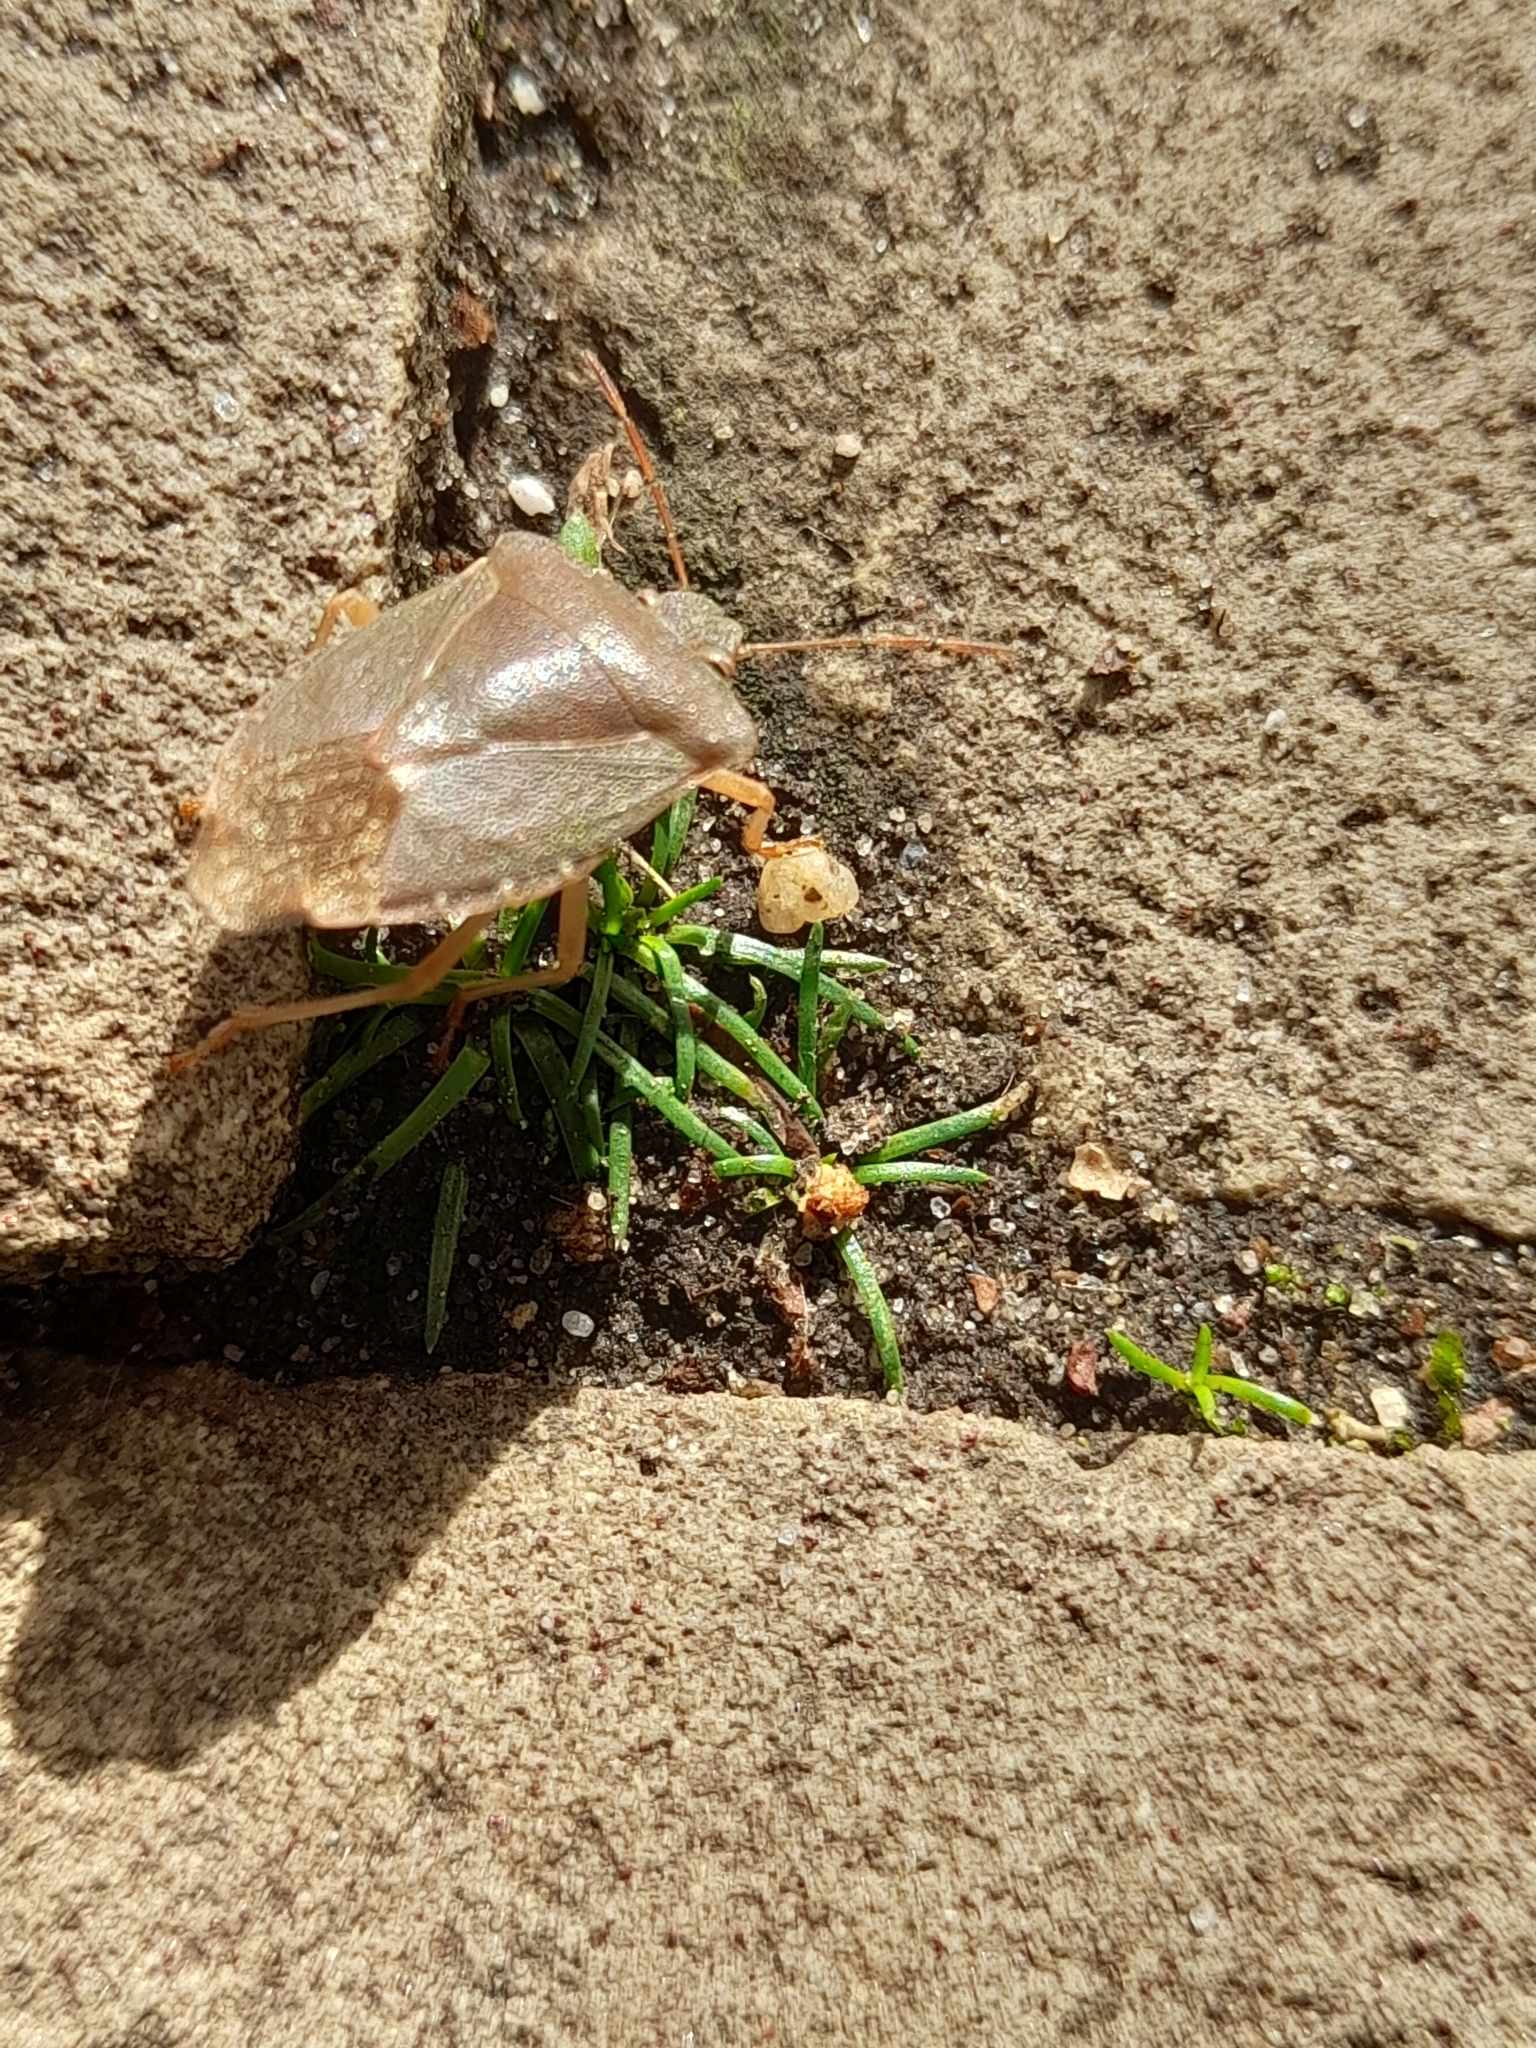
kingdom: Animalia
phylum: Arthropoda
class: Insecta
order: Hemiptera
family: Pentatomidae
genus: Palomena
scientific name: Palomena prasina
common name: Green shieldbug
